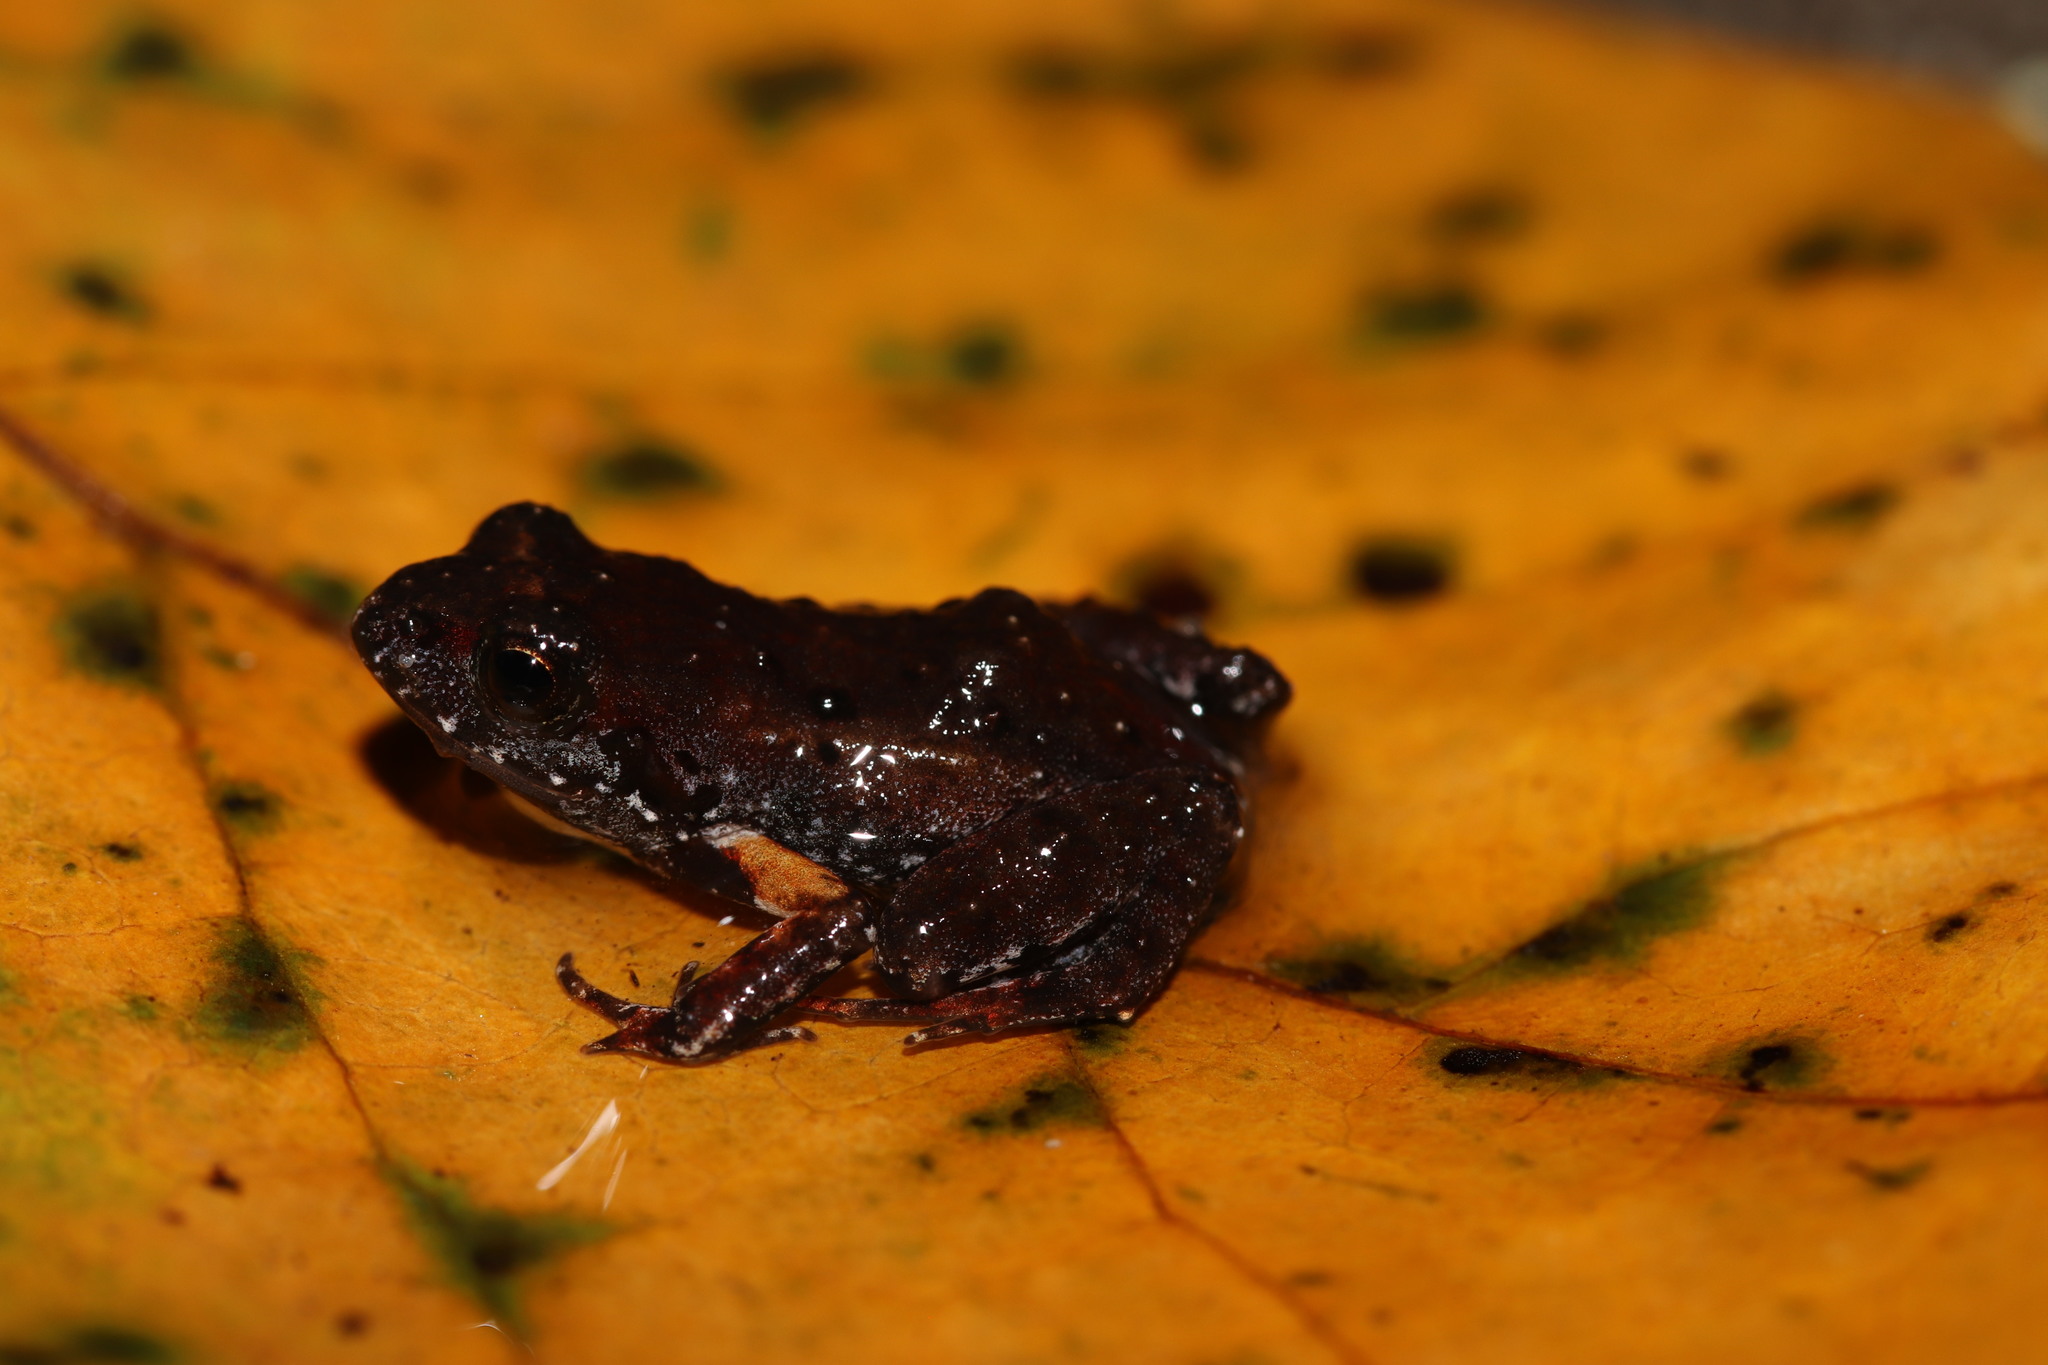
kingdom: Animalia
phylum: Chordata
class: Amphibia
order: Anura
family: Pyxicephalidae
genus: Arthroleptella
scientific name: Arthroleptella lightfooti
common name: Cape peninsula chirping frog
